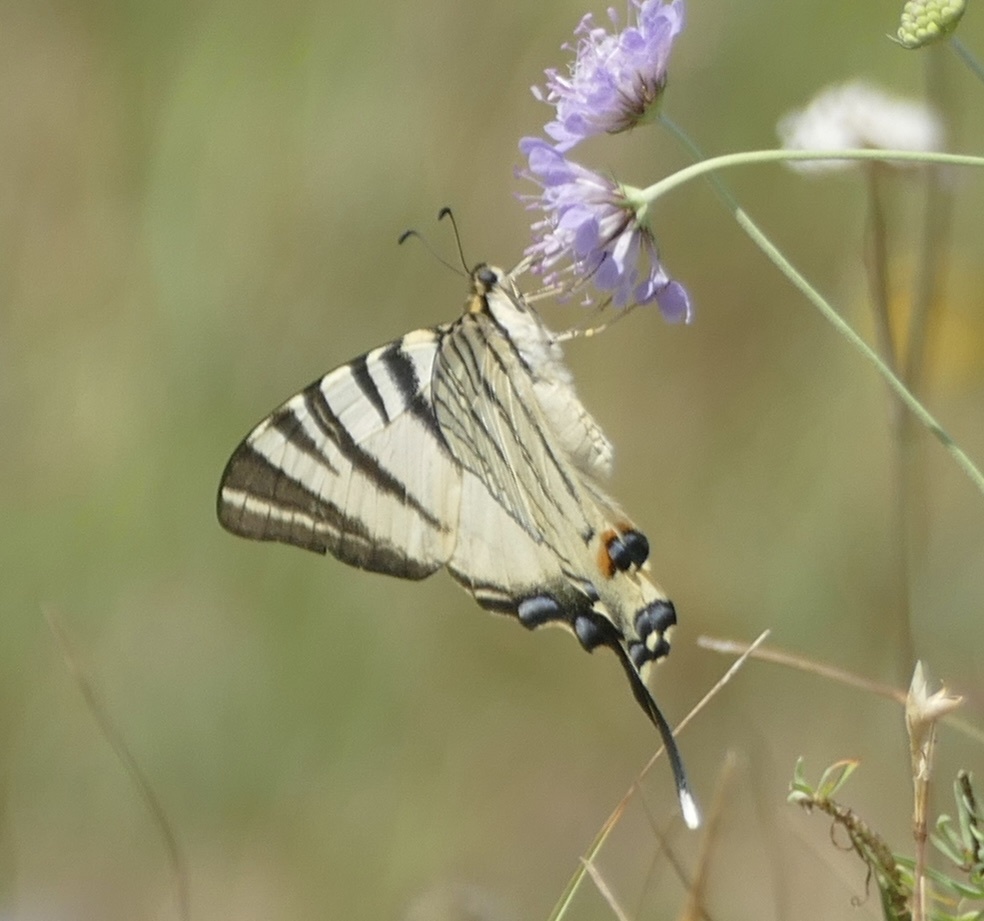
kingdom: Animalia
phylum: Arthropoda
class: Insecta
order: Lepidoptera
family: Papilionidae
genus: Iphiclides
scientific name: Iphiclides podalirius
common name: Scarce swallowtail
